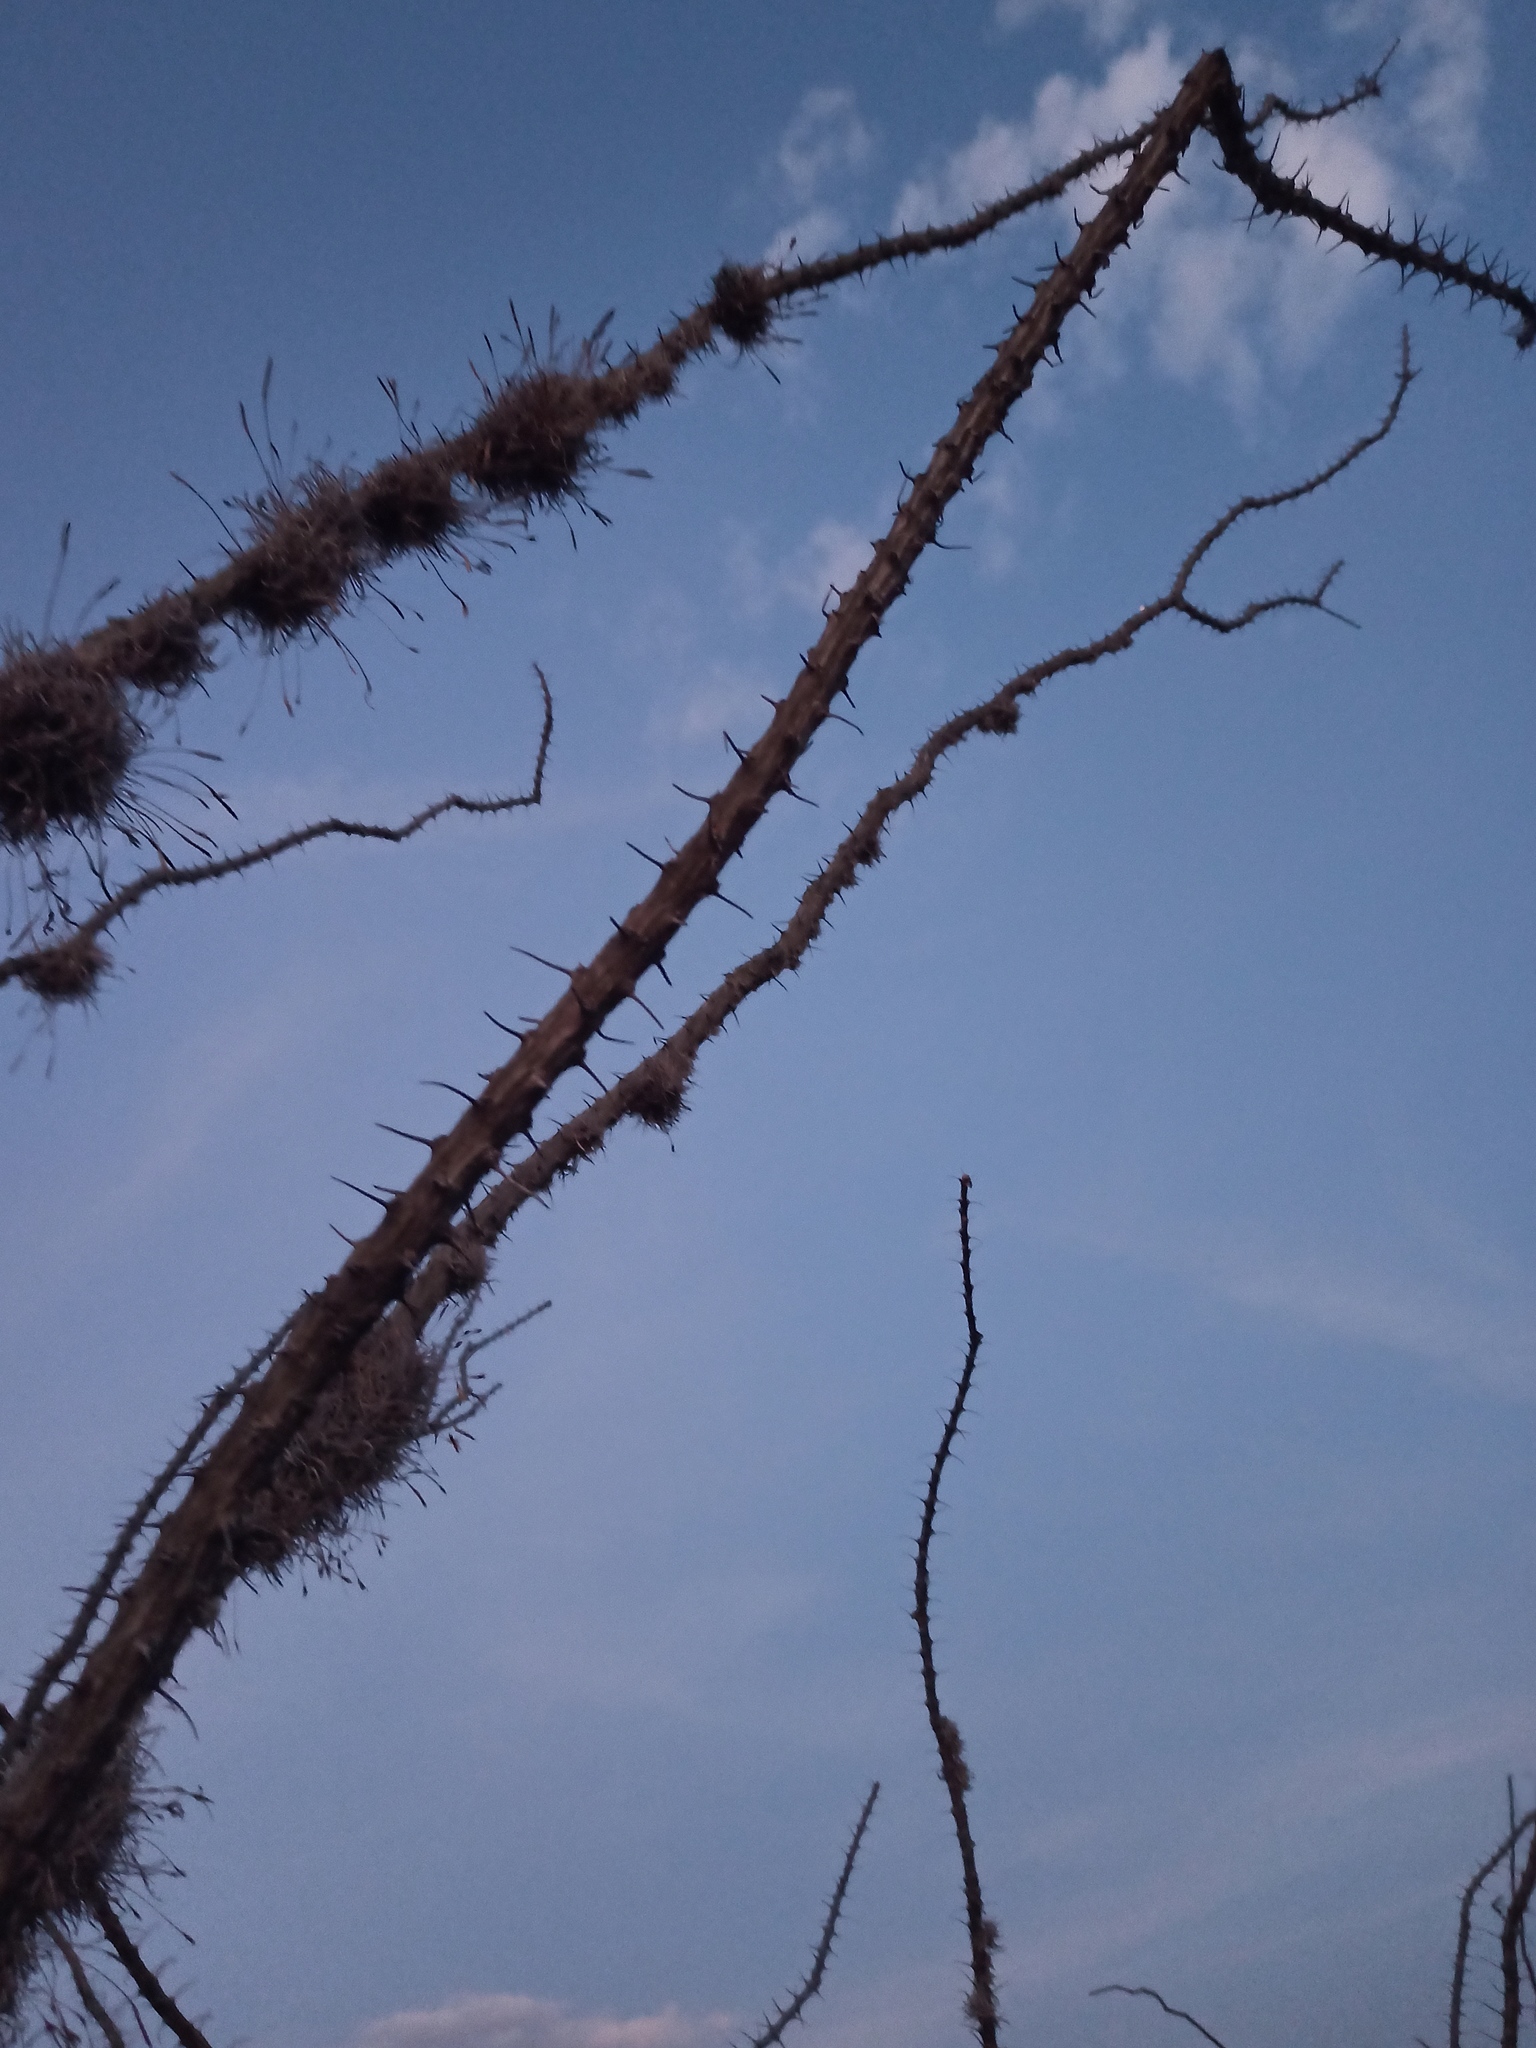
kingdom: Plantae
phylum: Tracheophyta
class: Magnoliopsida
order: Ericales
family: Fouquieriaceae
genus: Fouquieria
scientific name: Fouquieria splendens
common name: Vine-cactus
